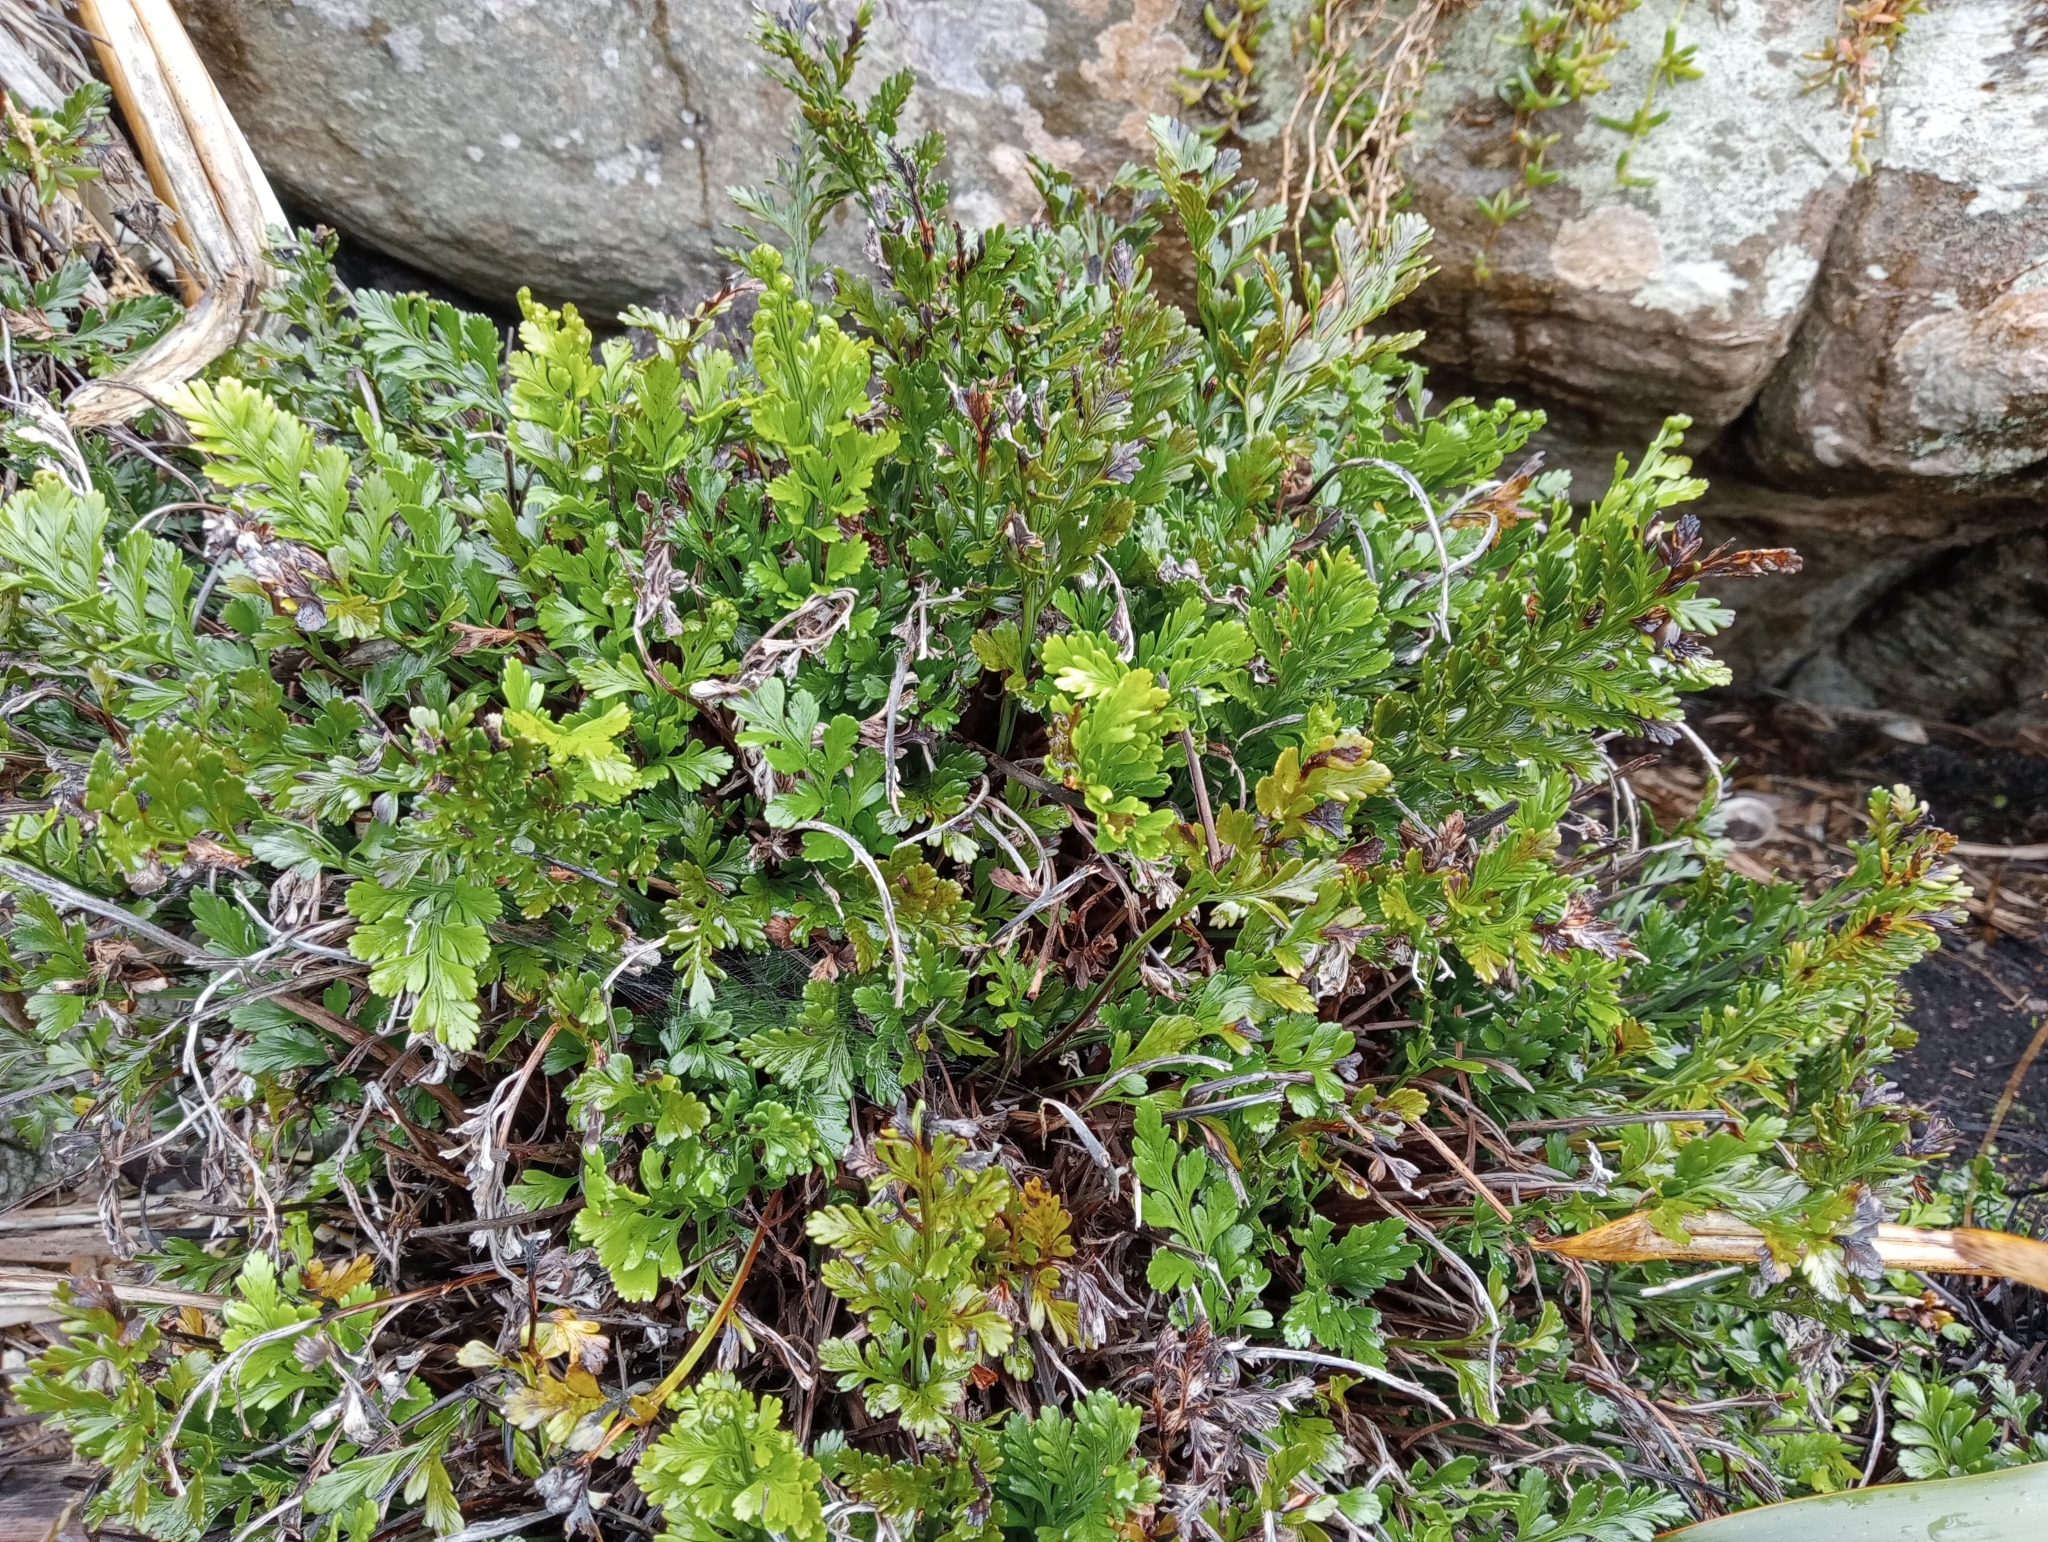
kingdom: Plantae
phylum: Tracheophyta
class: Polypodiopsida
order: Polypodiales
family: Aspleniaceae
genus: Asplenium
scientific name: Asplenium chathamense
